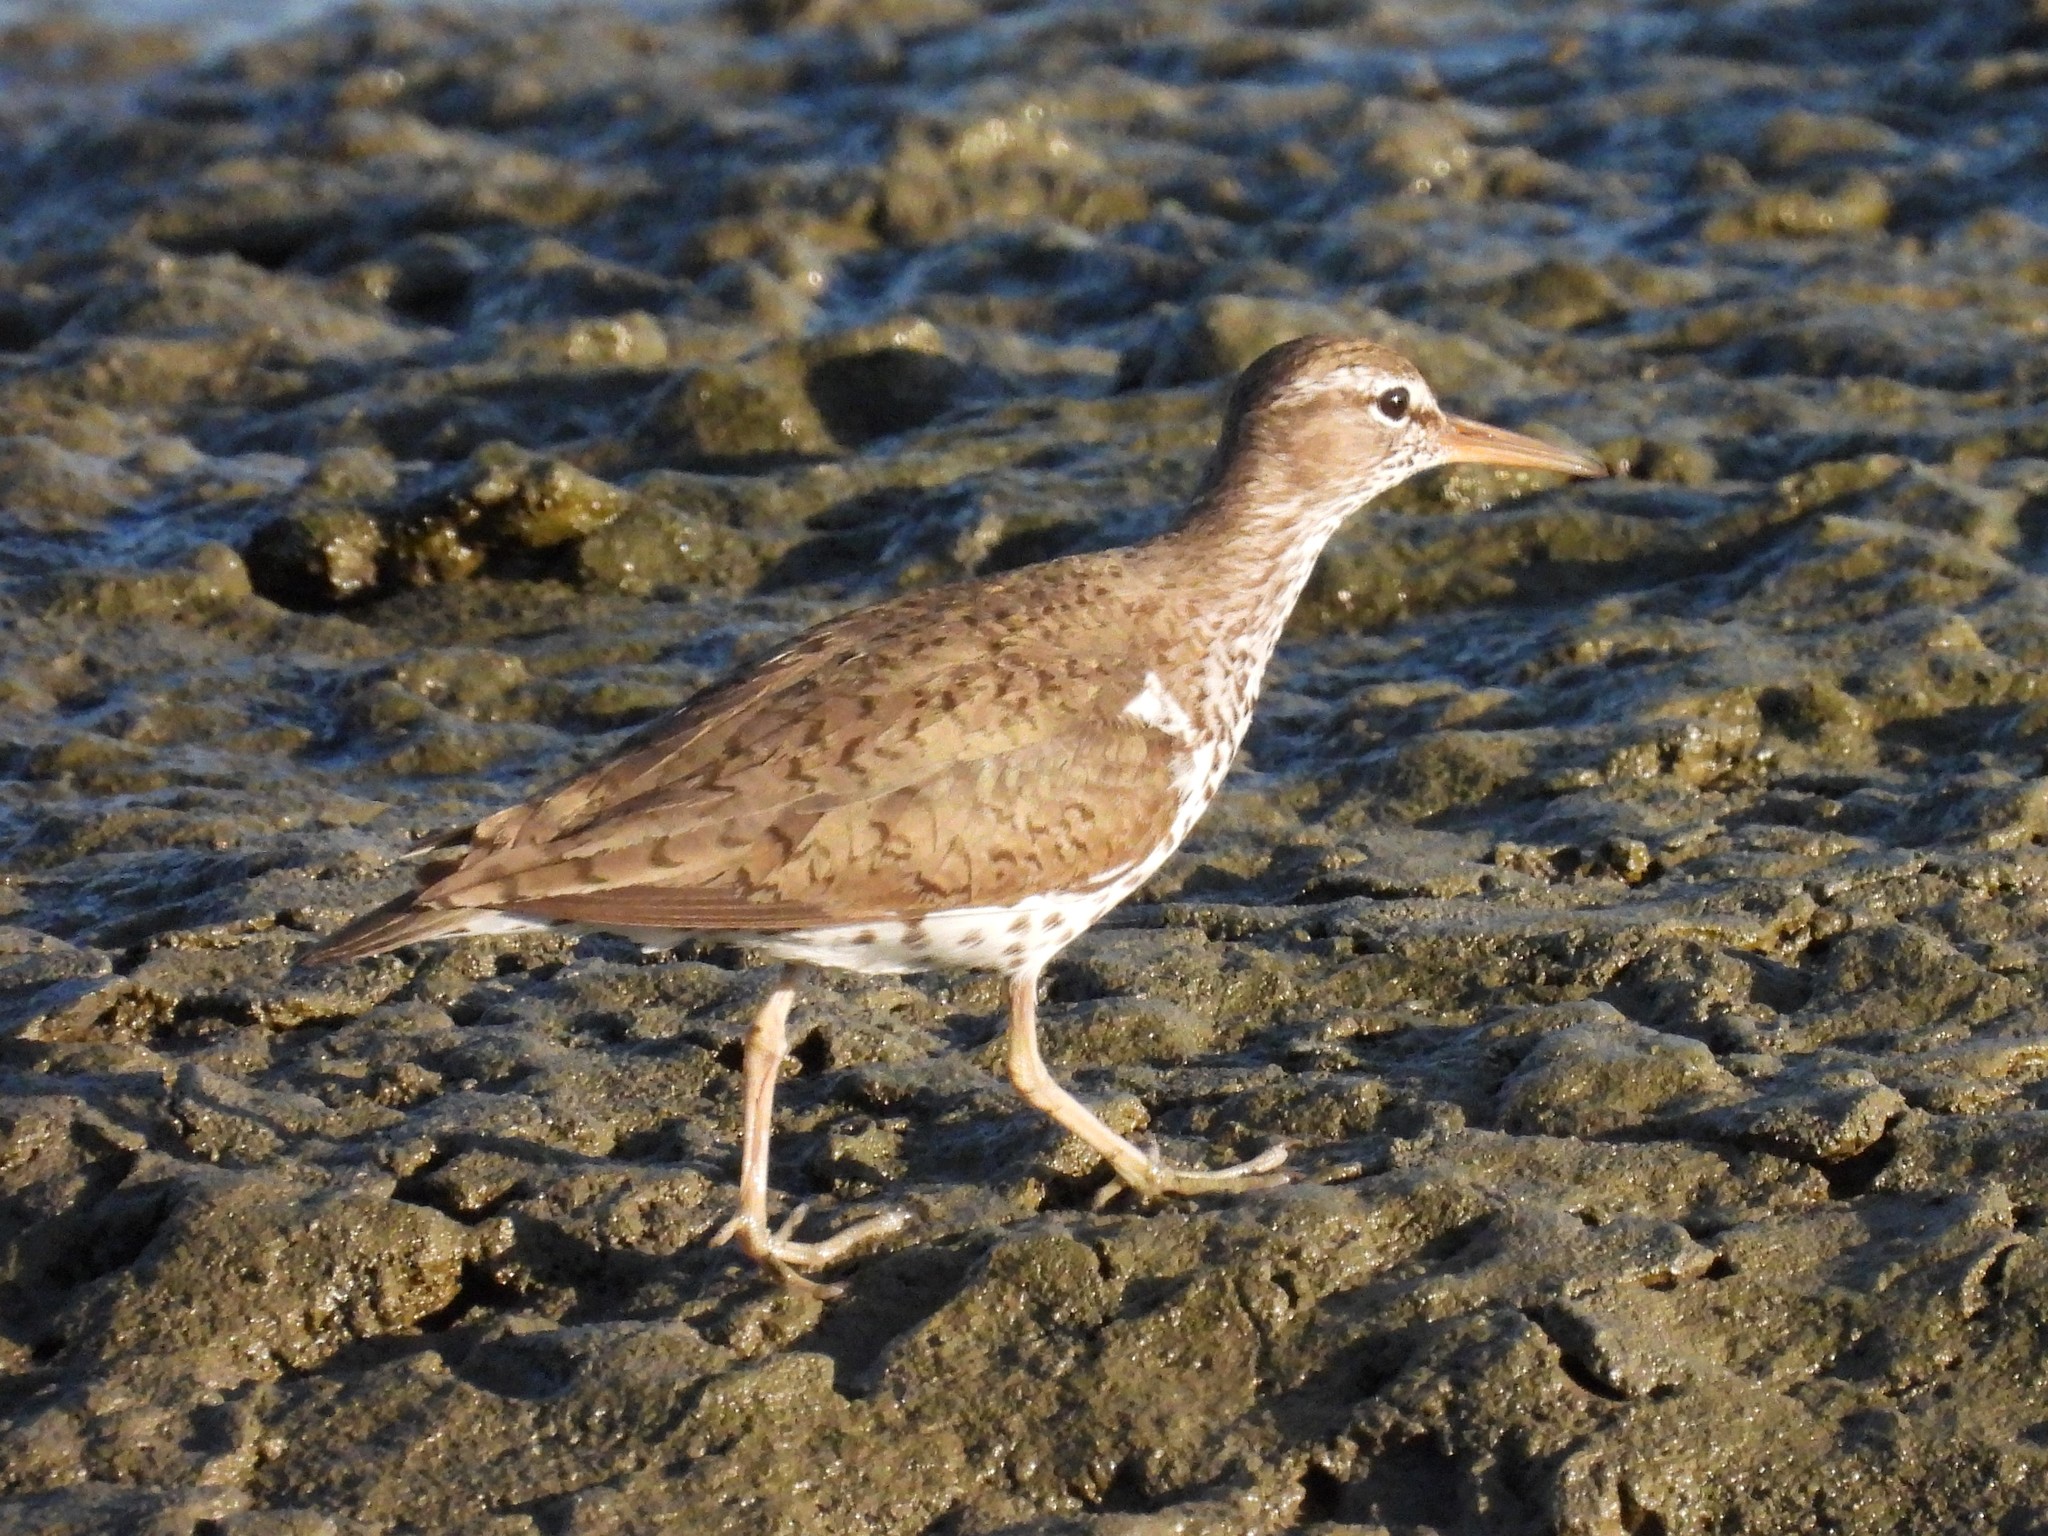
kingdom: Animalia
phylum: Chordata
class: Aves
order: Charadriiformes
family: Scolopacidae
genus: Actitis
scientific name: Actitis macularius
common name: Spotted sandpiper
